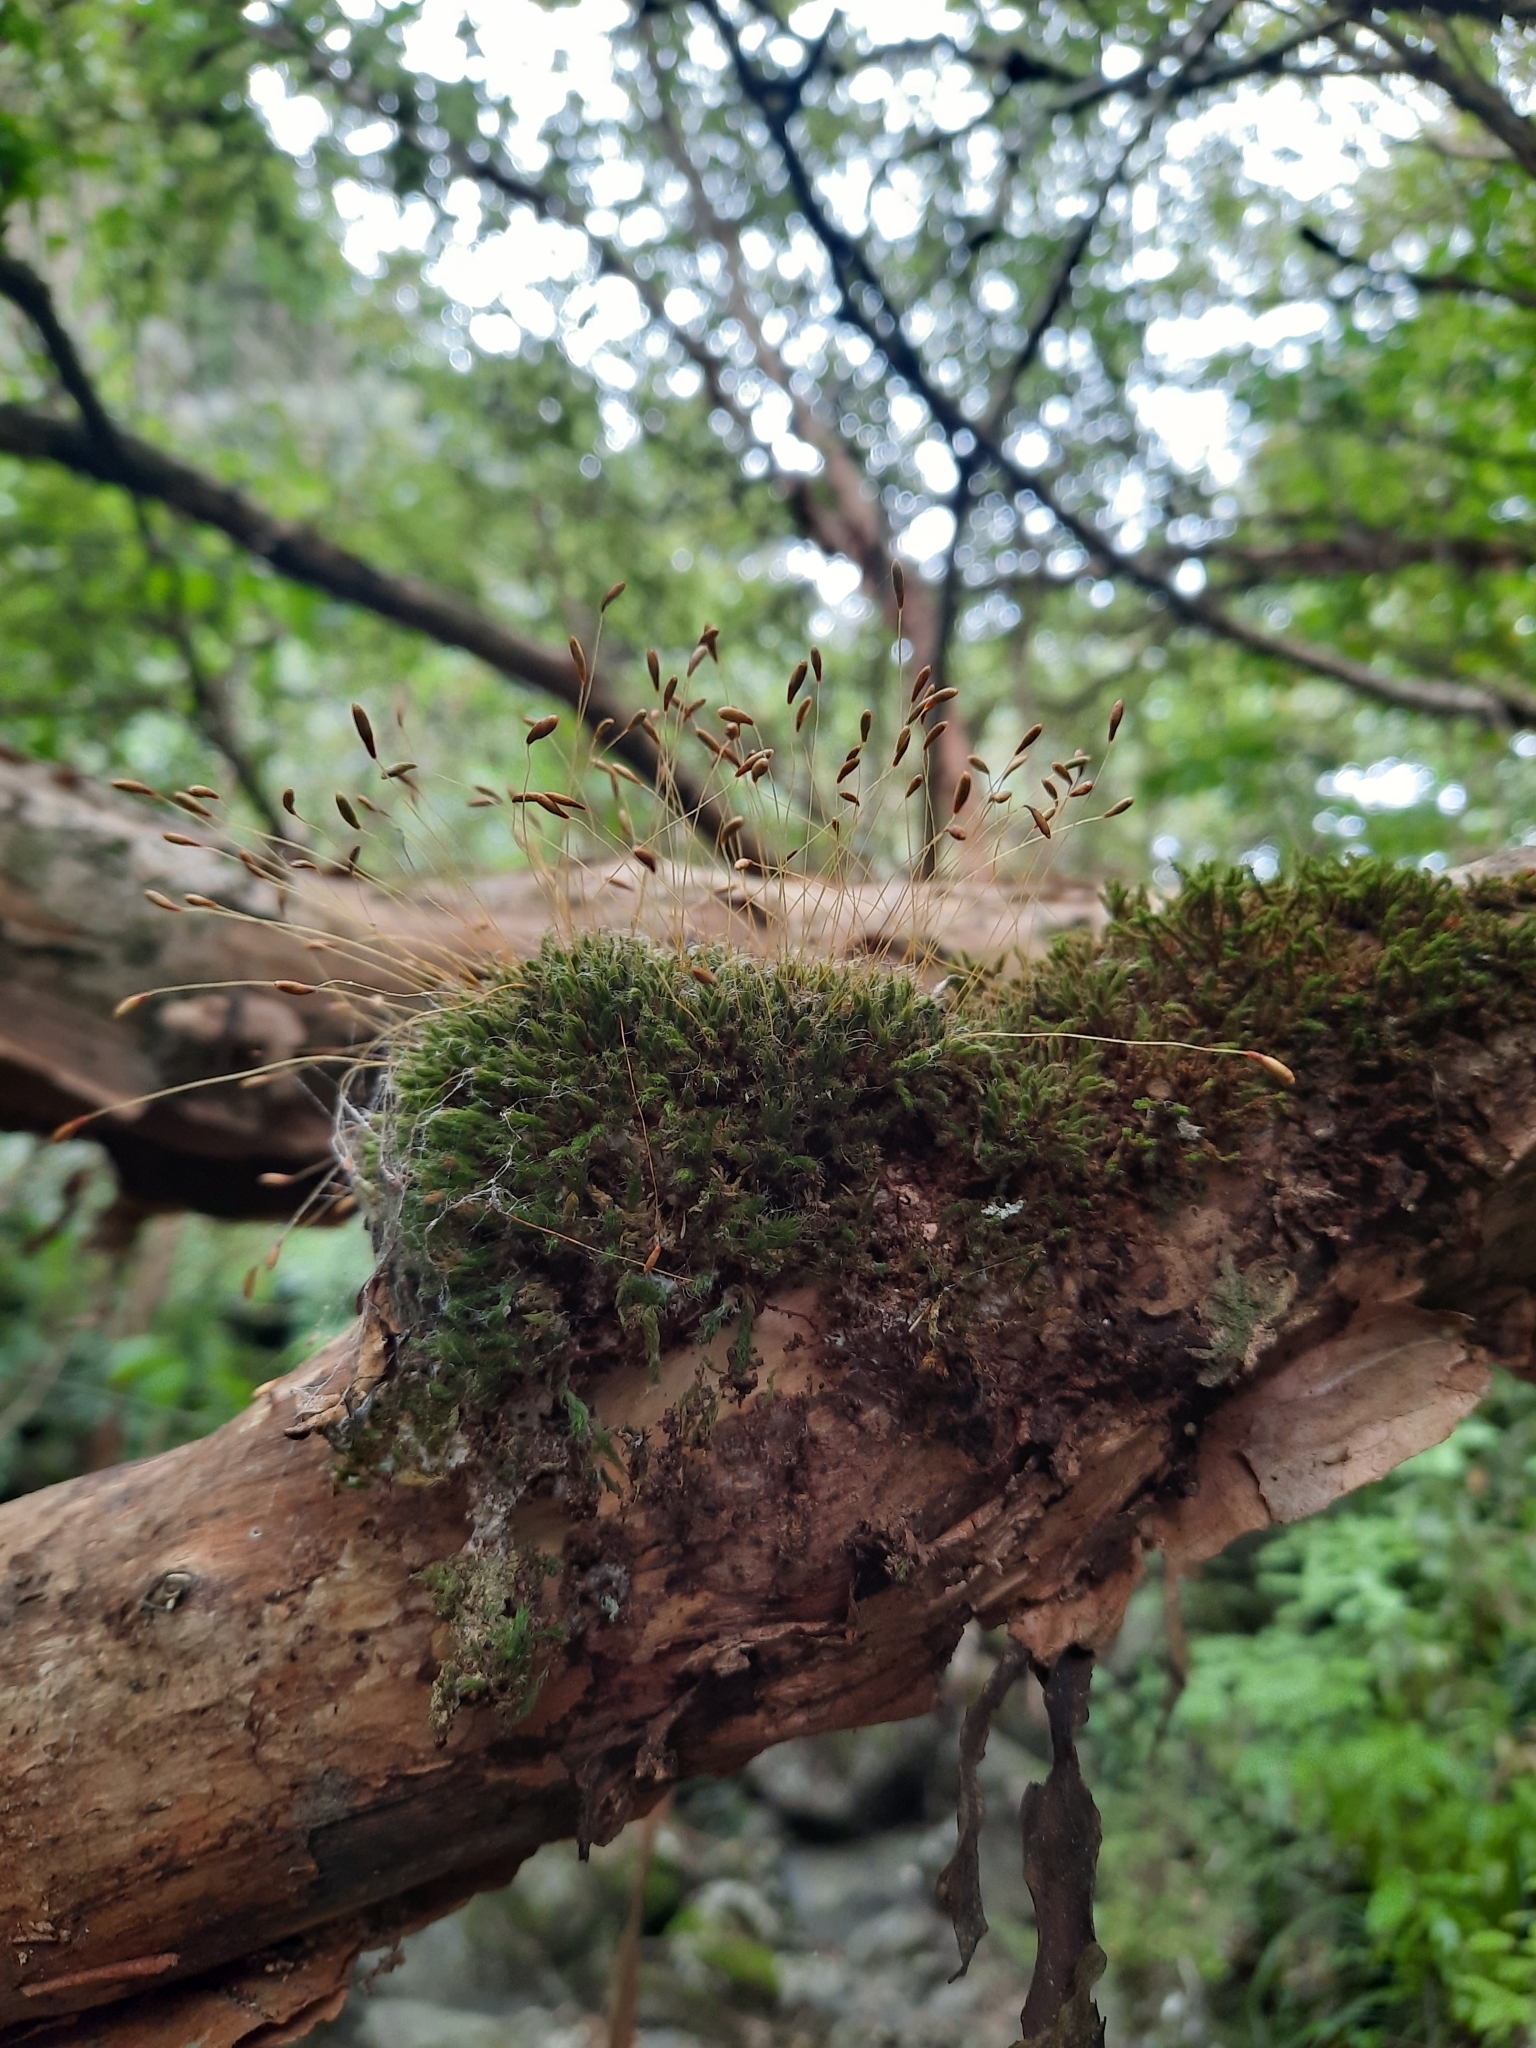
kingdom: Plantae
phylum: Bryophyta
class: Bryopsida
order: Bryales
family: Leptostomataceae
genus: Leptostomum
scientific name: Leptostomum inclinans
